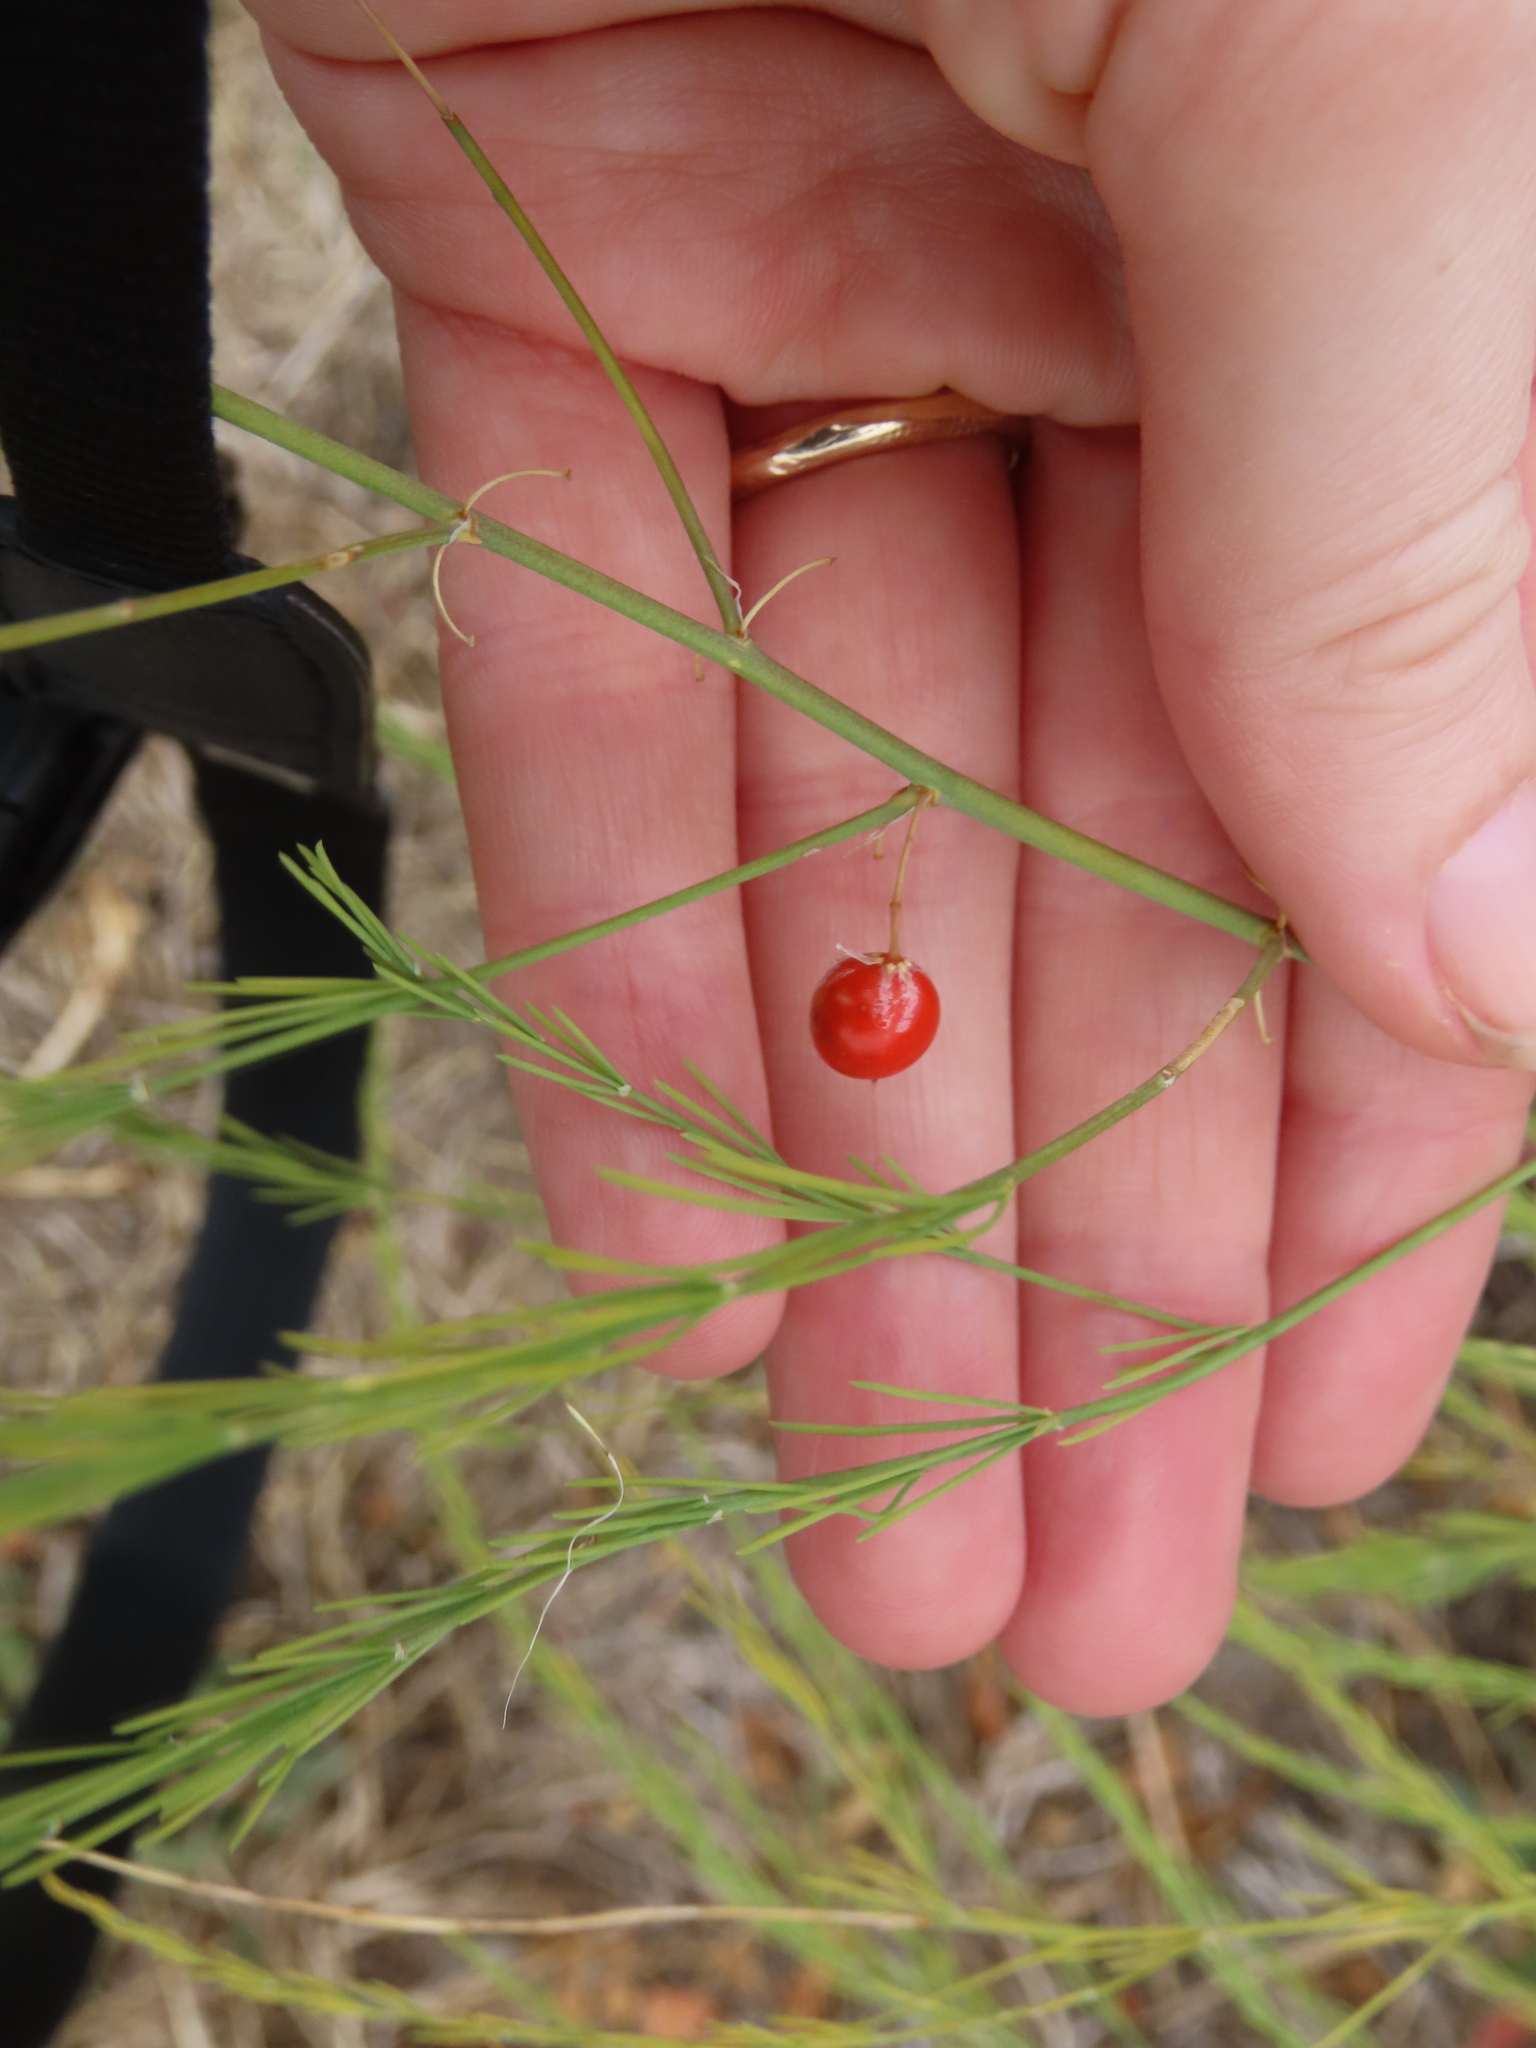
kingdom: Plantae
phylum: Tracheophyta
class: Liliopsida
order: Asparagales
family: Asparagaceae
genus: Asparagus
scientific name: Asparagus officinalis
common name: Garden asparagus
